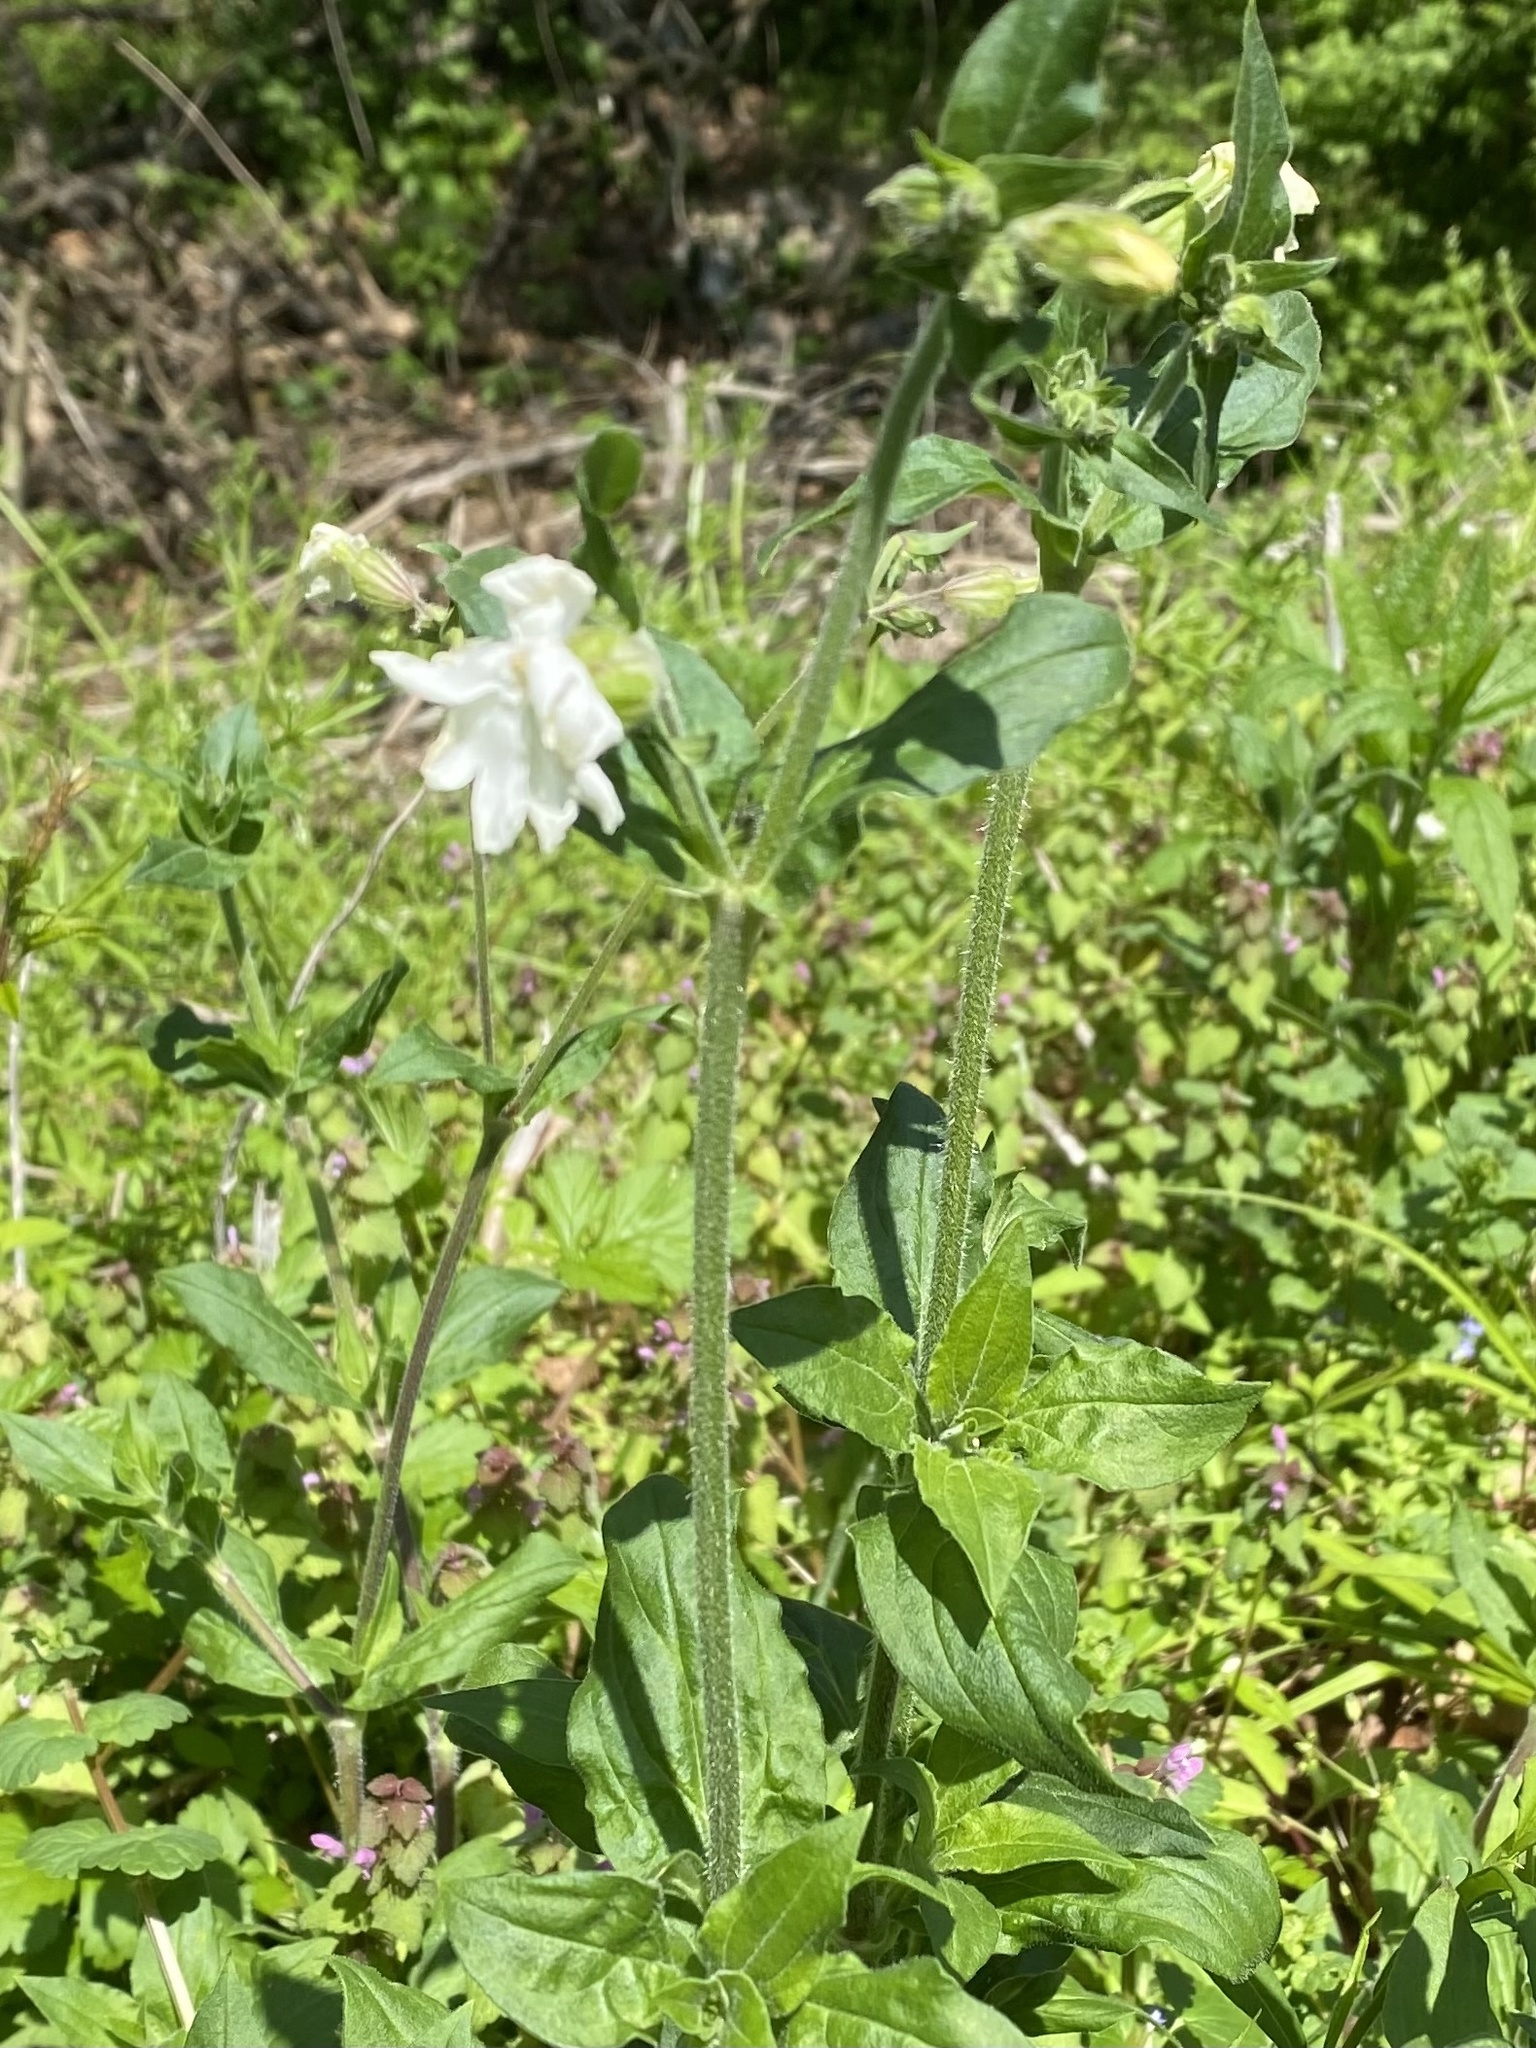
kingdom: Plantae
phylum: Tracheophyta
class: Magnoliopsida
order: Caryophyllales
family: Caryophyllaceae
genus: Silene
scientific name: Silene latifolia
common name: White campion
